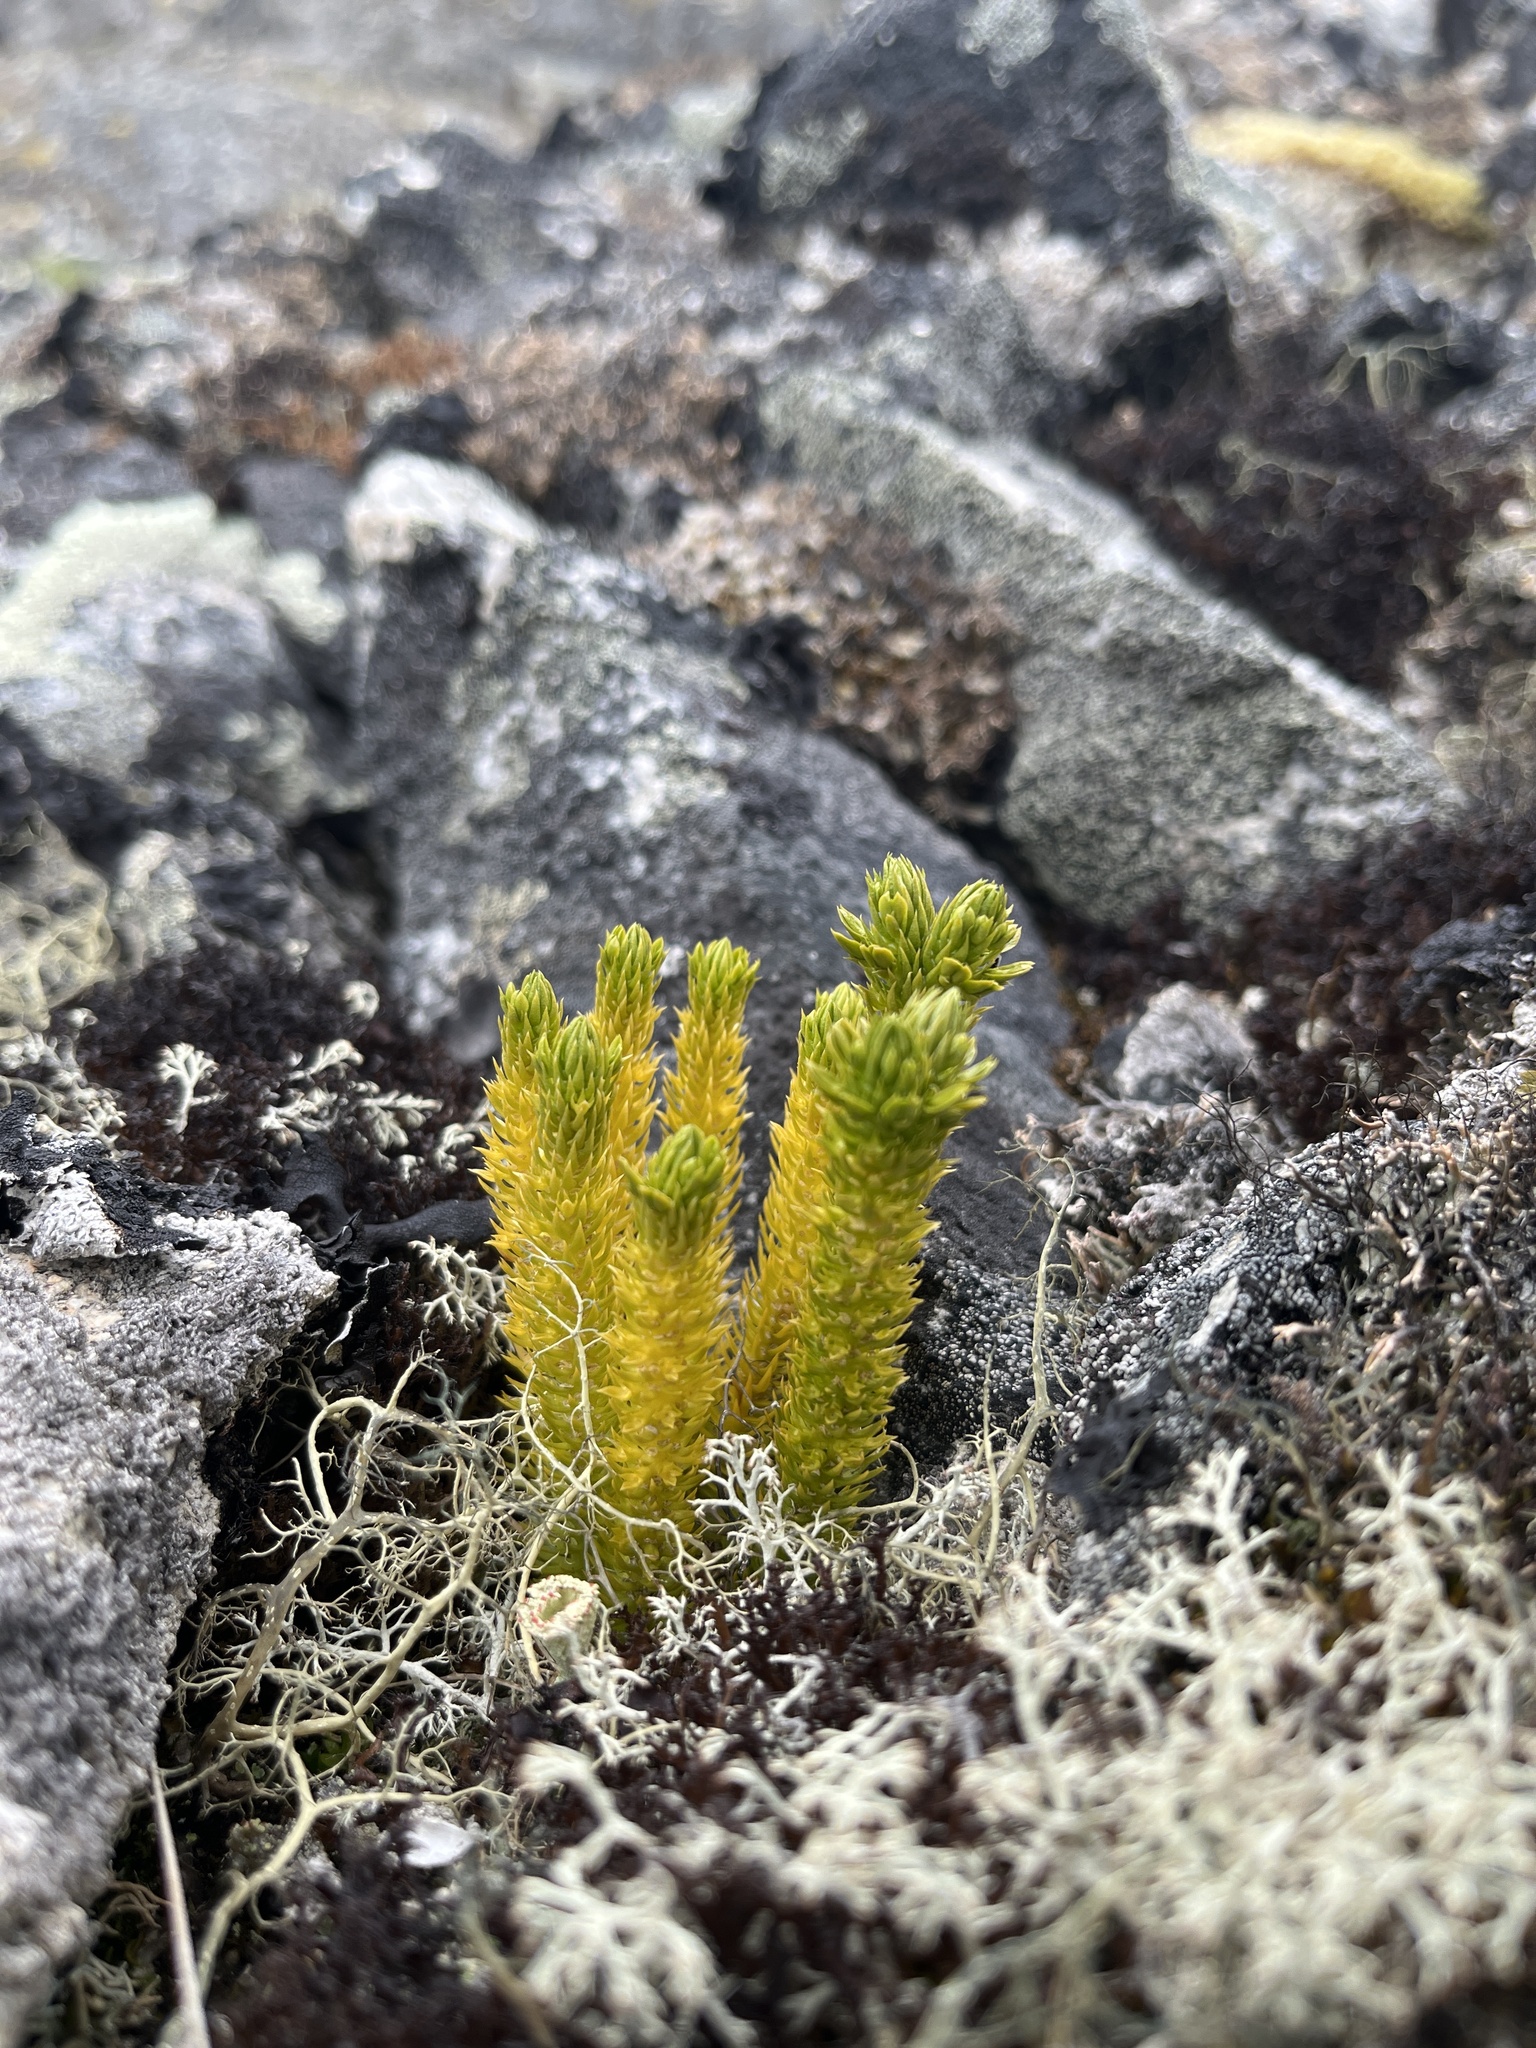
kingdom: Plantae
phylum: Tracheophyta
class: Lycopodiopsida
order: Lycopodiales
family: Lycopodiaceae
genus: Huperzia
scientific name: Huperzia selago
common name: Northern firmoss
